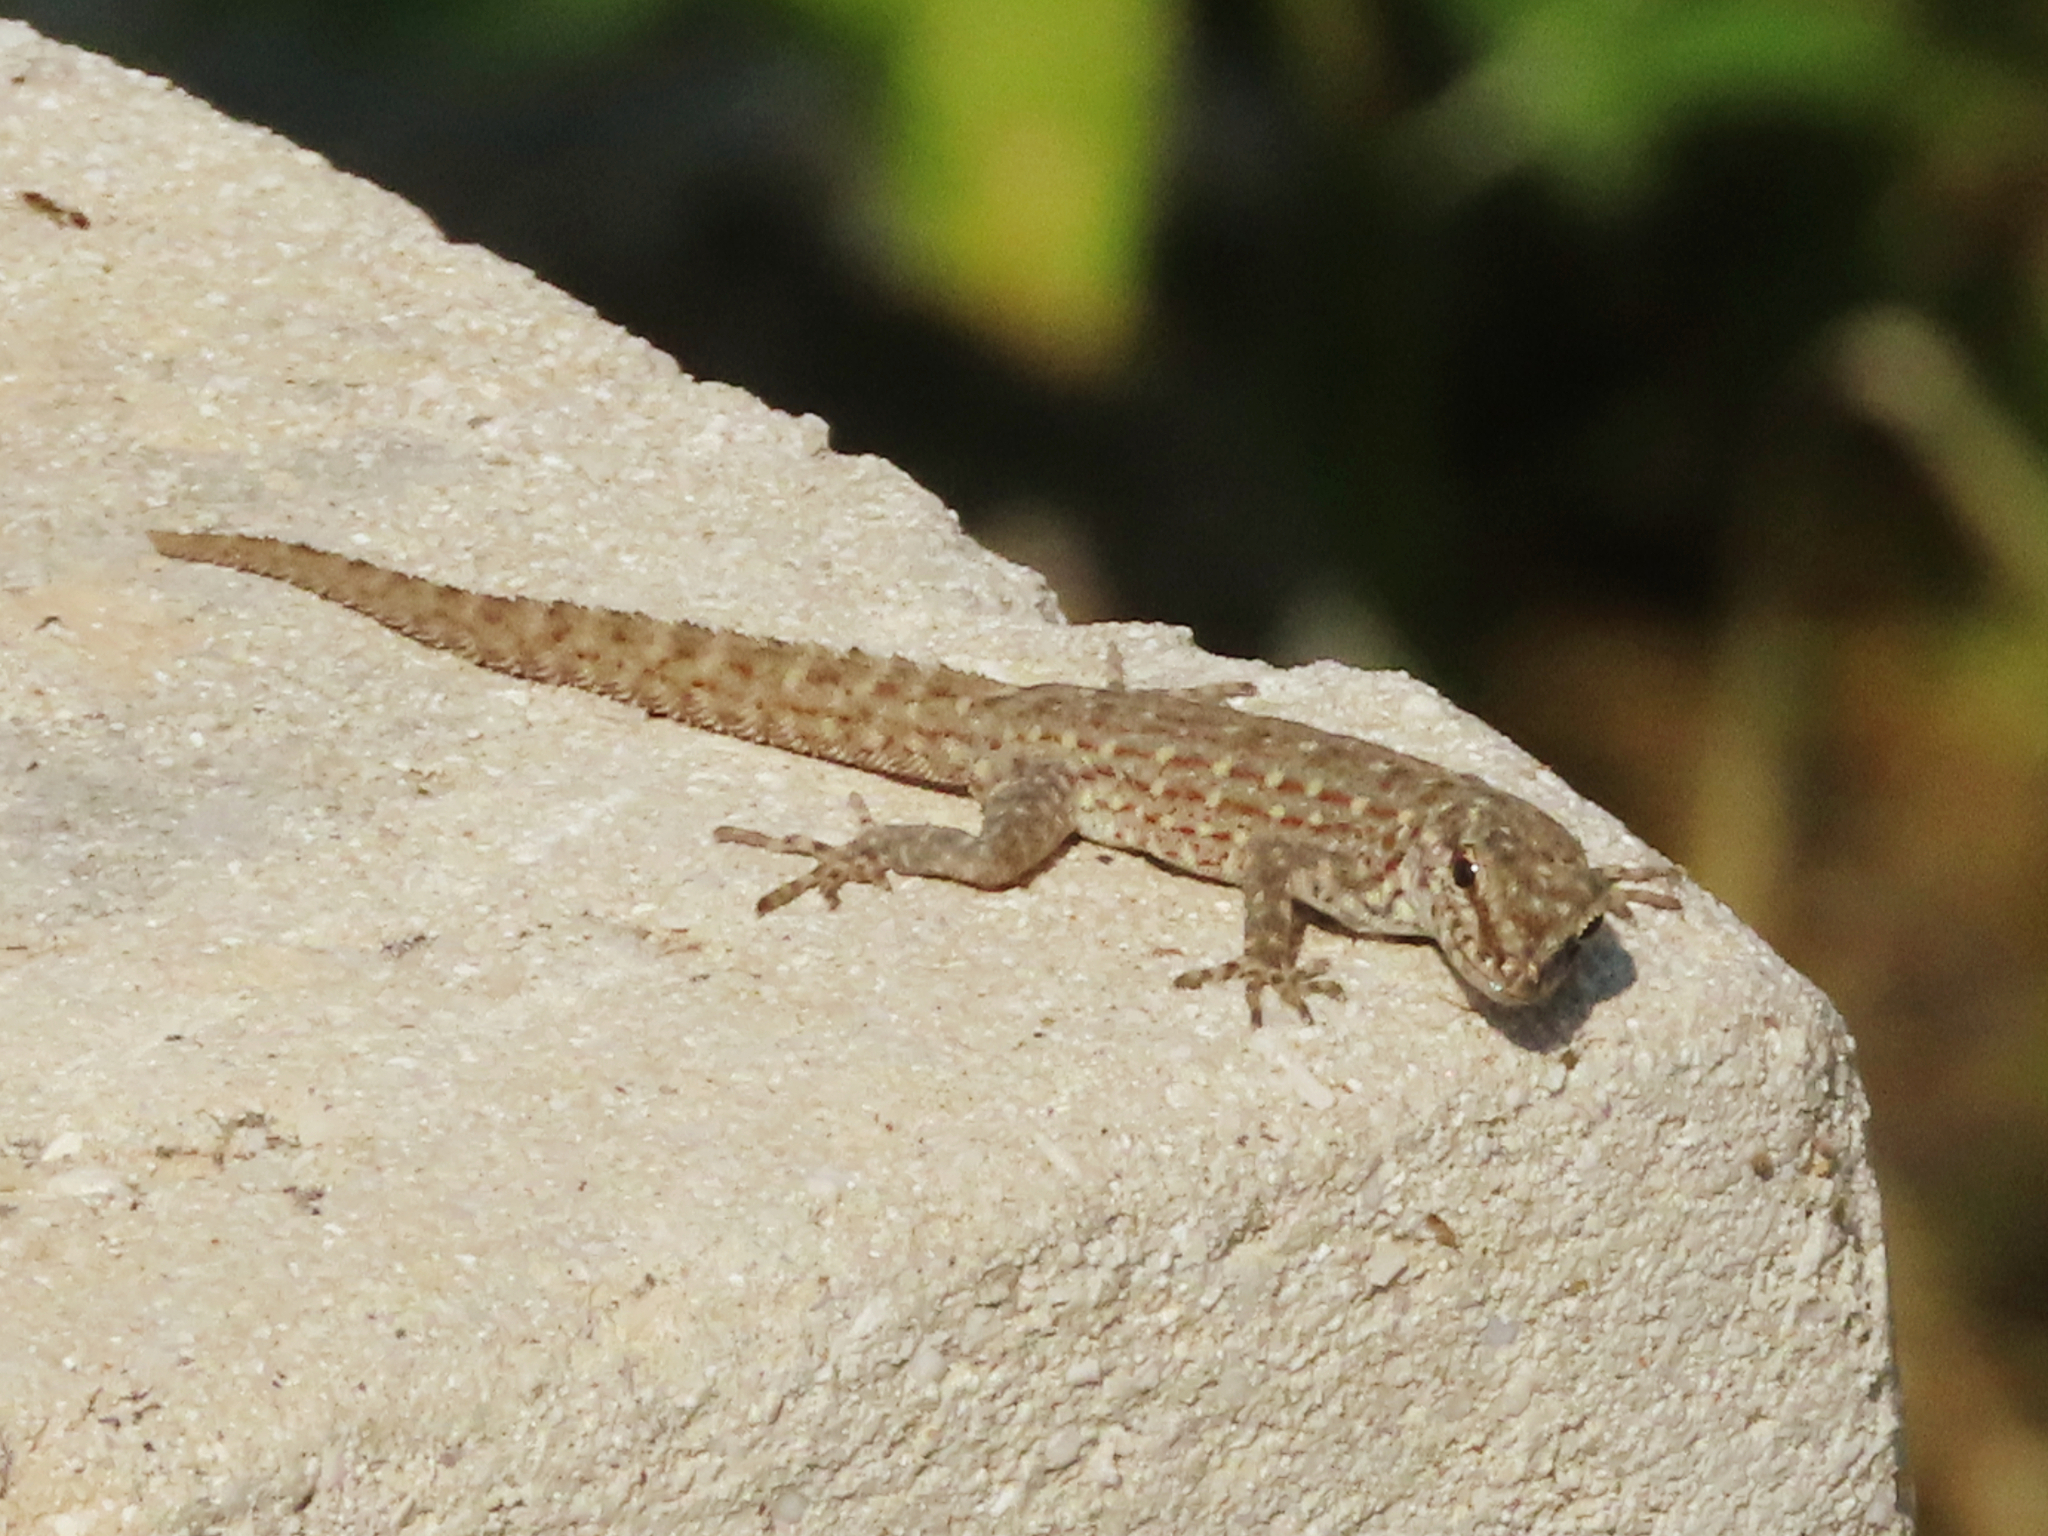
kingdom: Animalia
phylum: Chordata
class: Squamata
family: Sphaerodactylidae
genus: Pristurus
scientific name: Pristurus rupestris
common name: Blanford’s semaphore gecko
